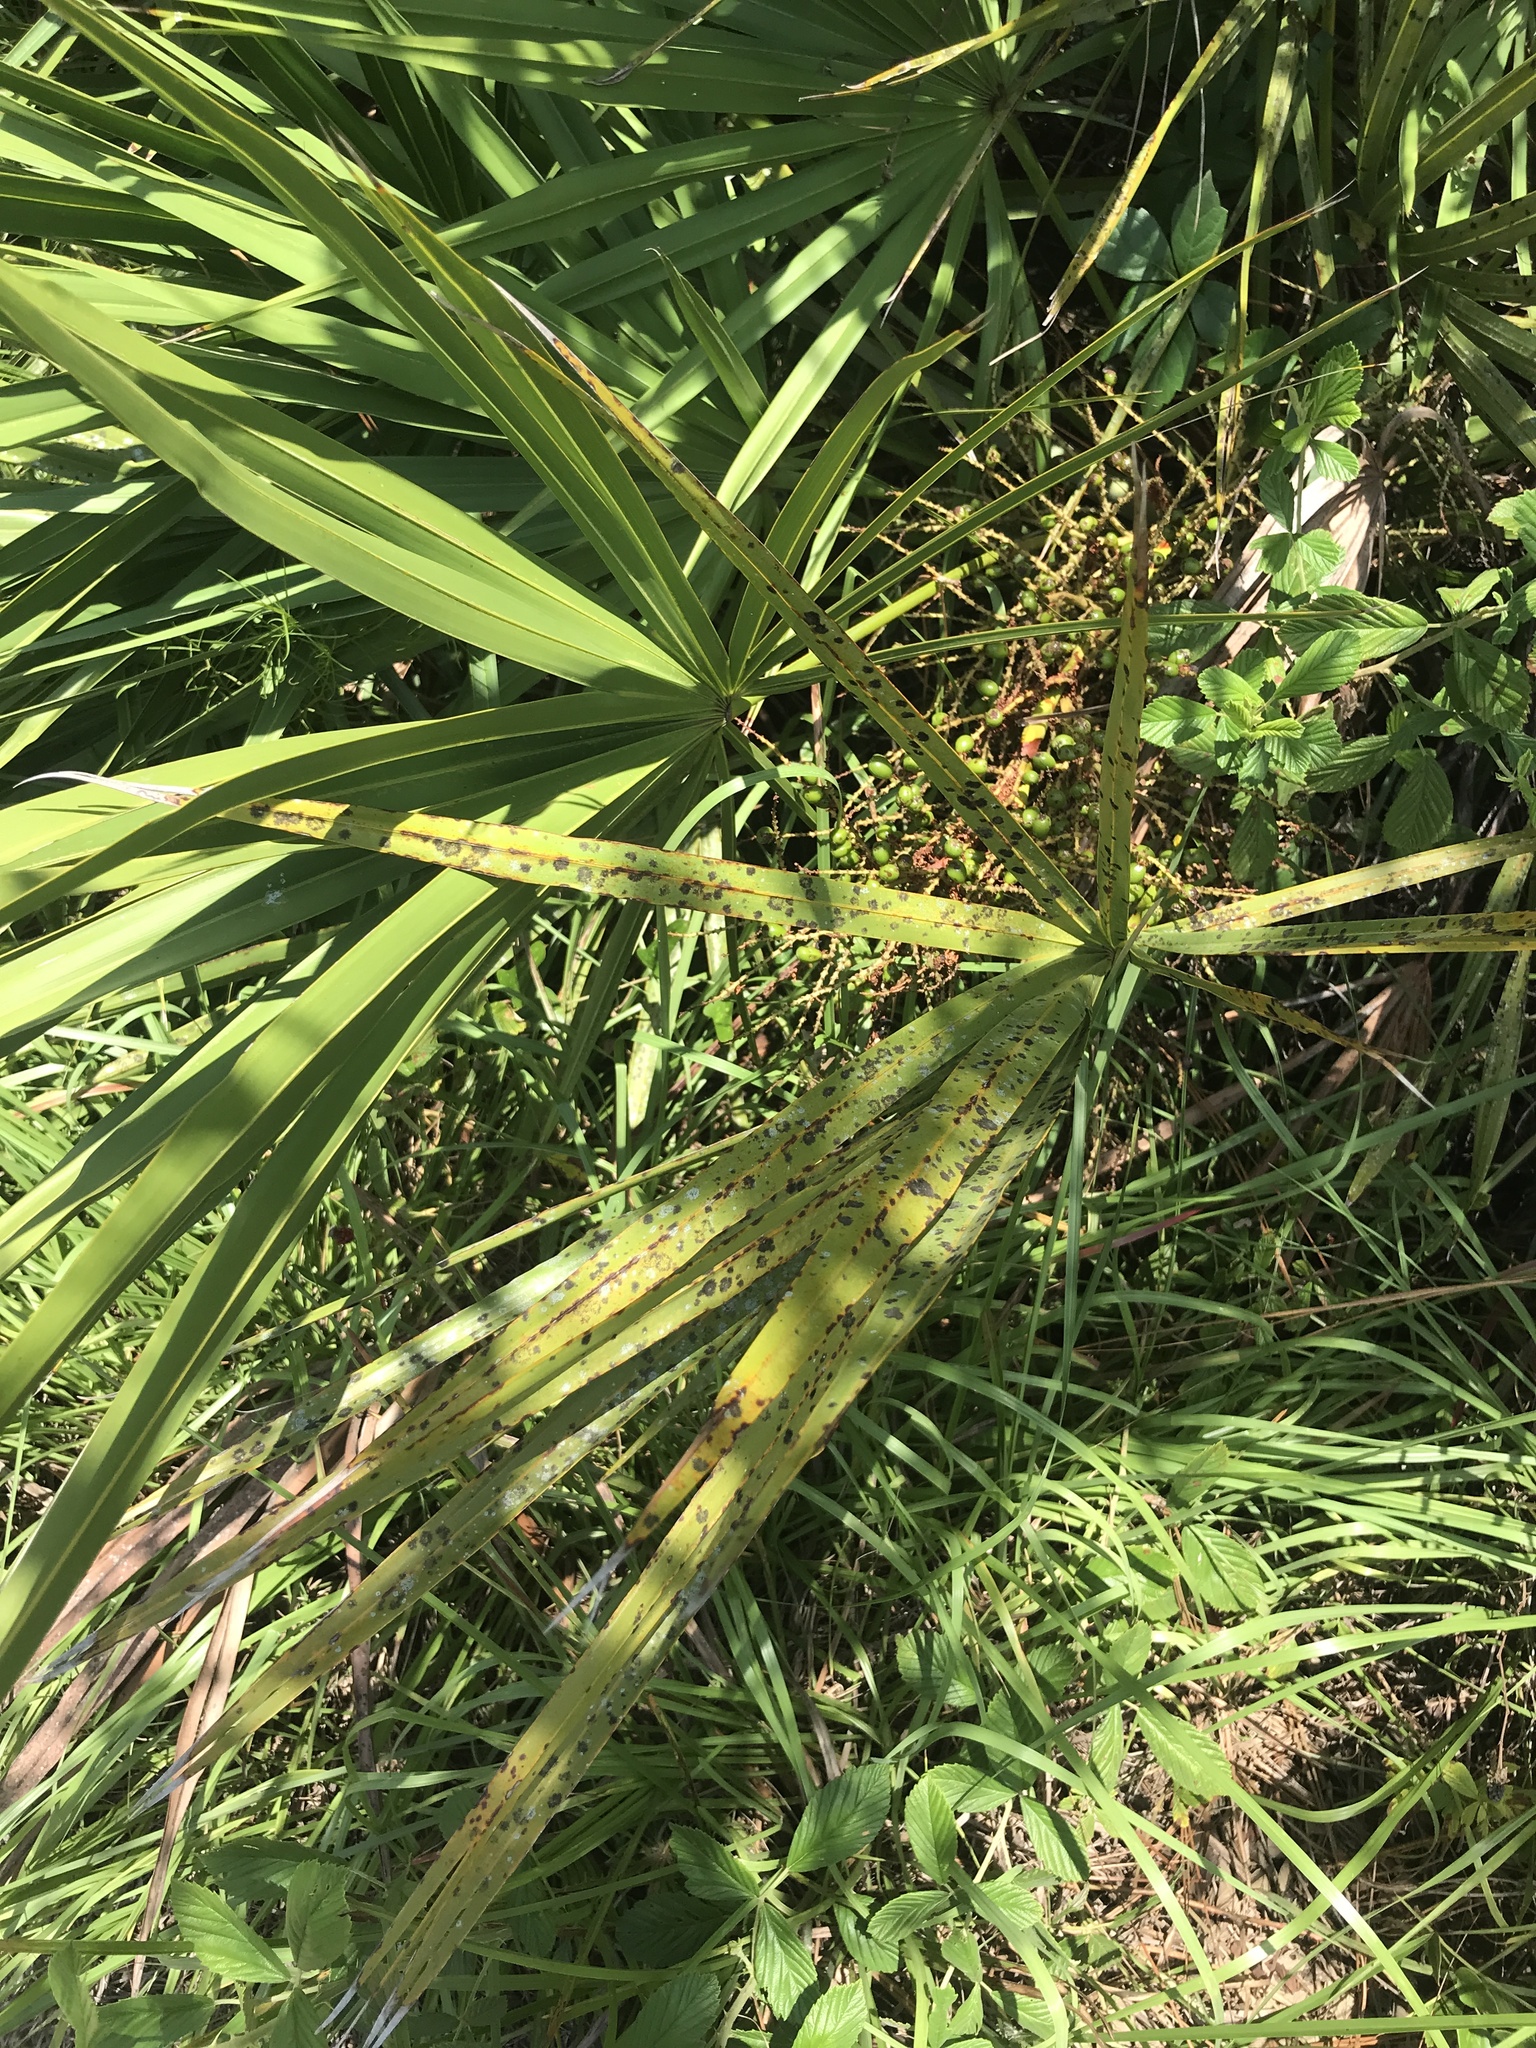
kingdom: Plantae
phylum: Tracheophyta
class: Liliopsida
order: Arecales
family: Arecaceae
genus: Serenoa
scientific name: Serenoa repens
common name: Saw-palmetto
